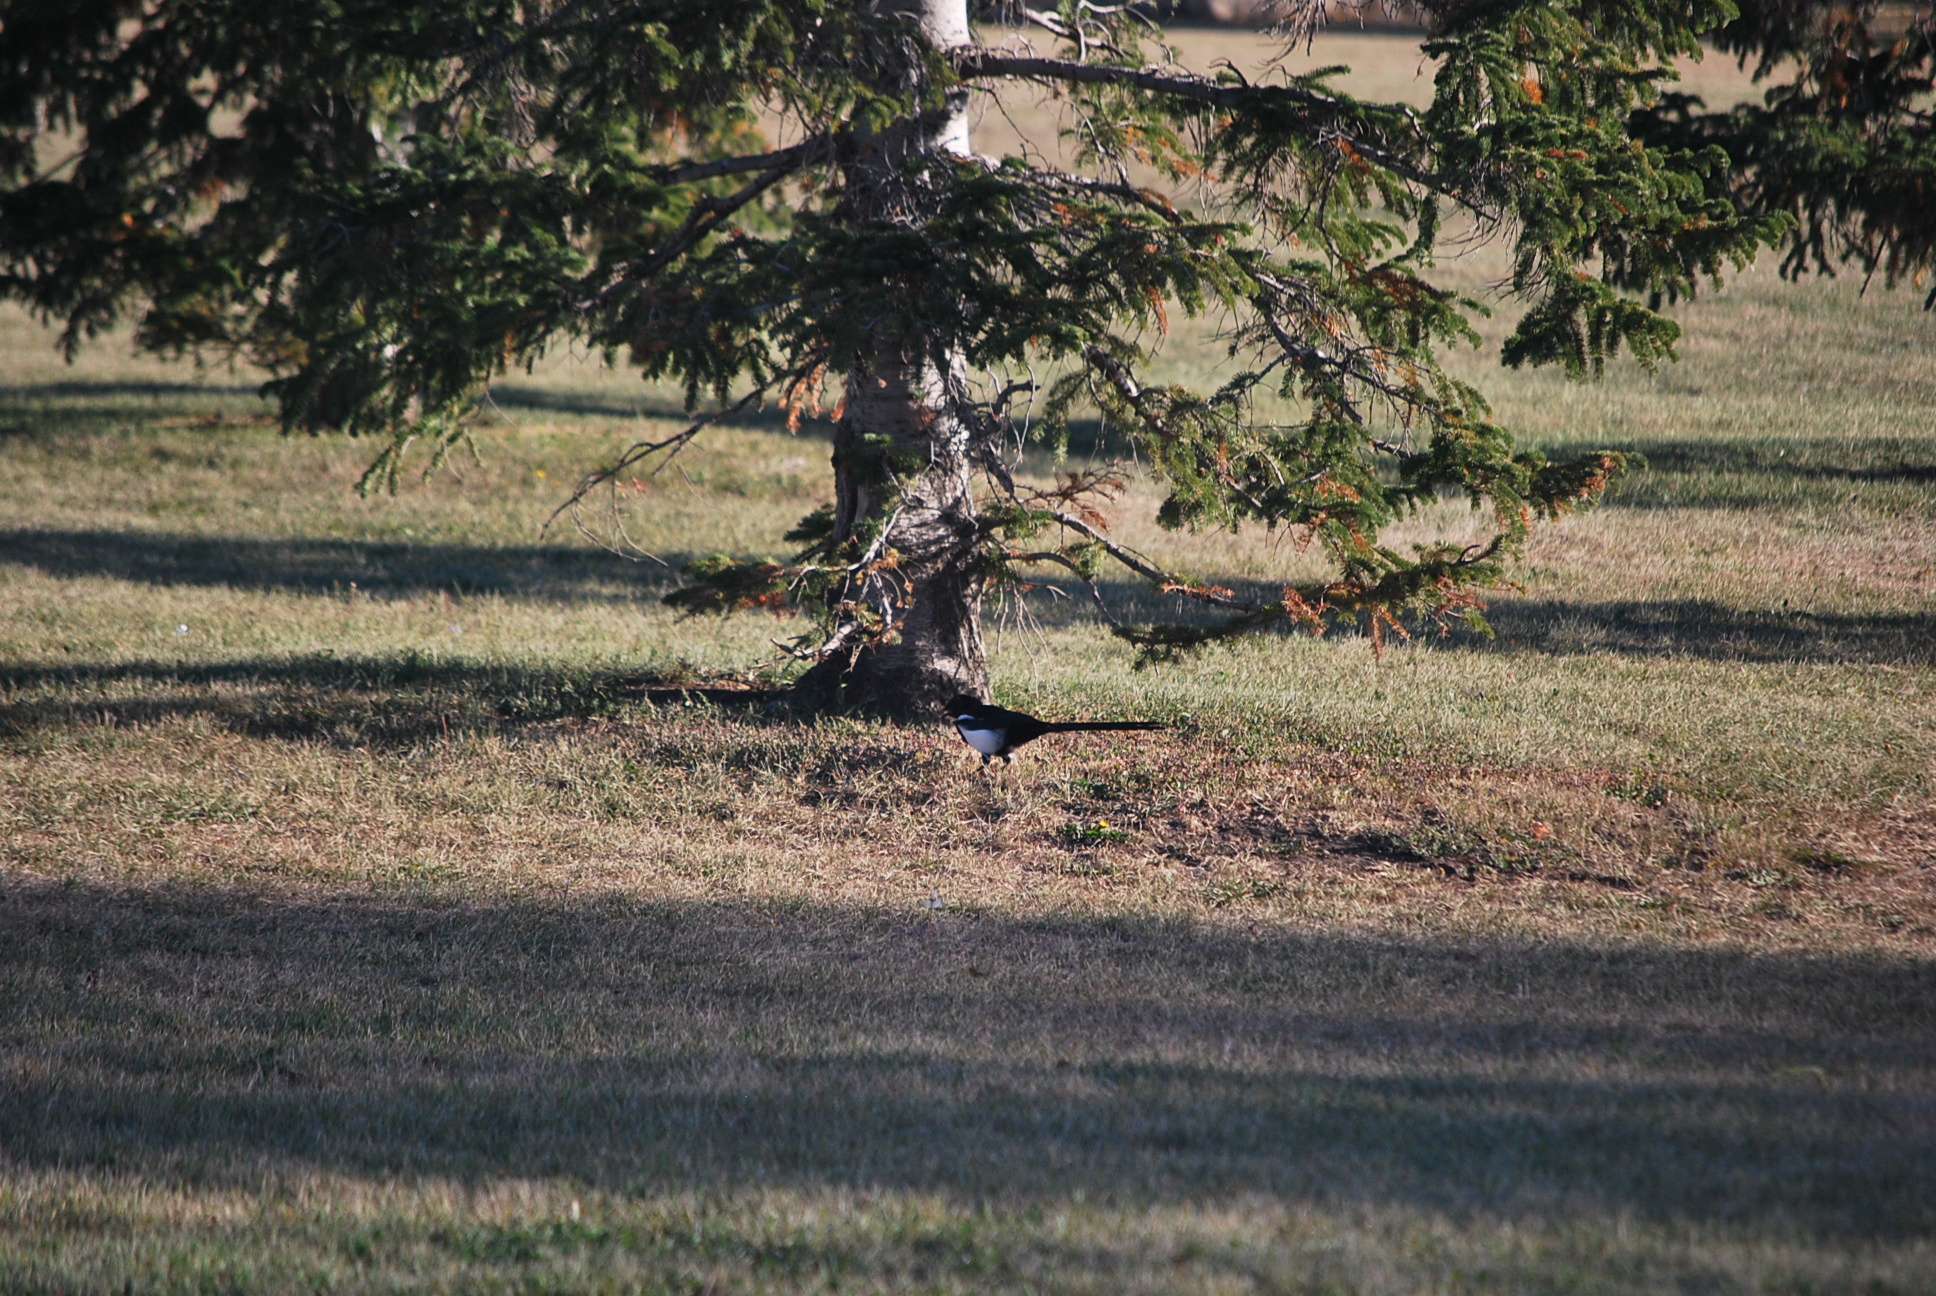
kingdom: Animalia
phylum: Chordata
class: Aves
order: Passeriformes
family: Corvidae
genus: Pica
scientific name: Pica hudsonia
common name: Black-billed magpie
